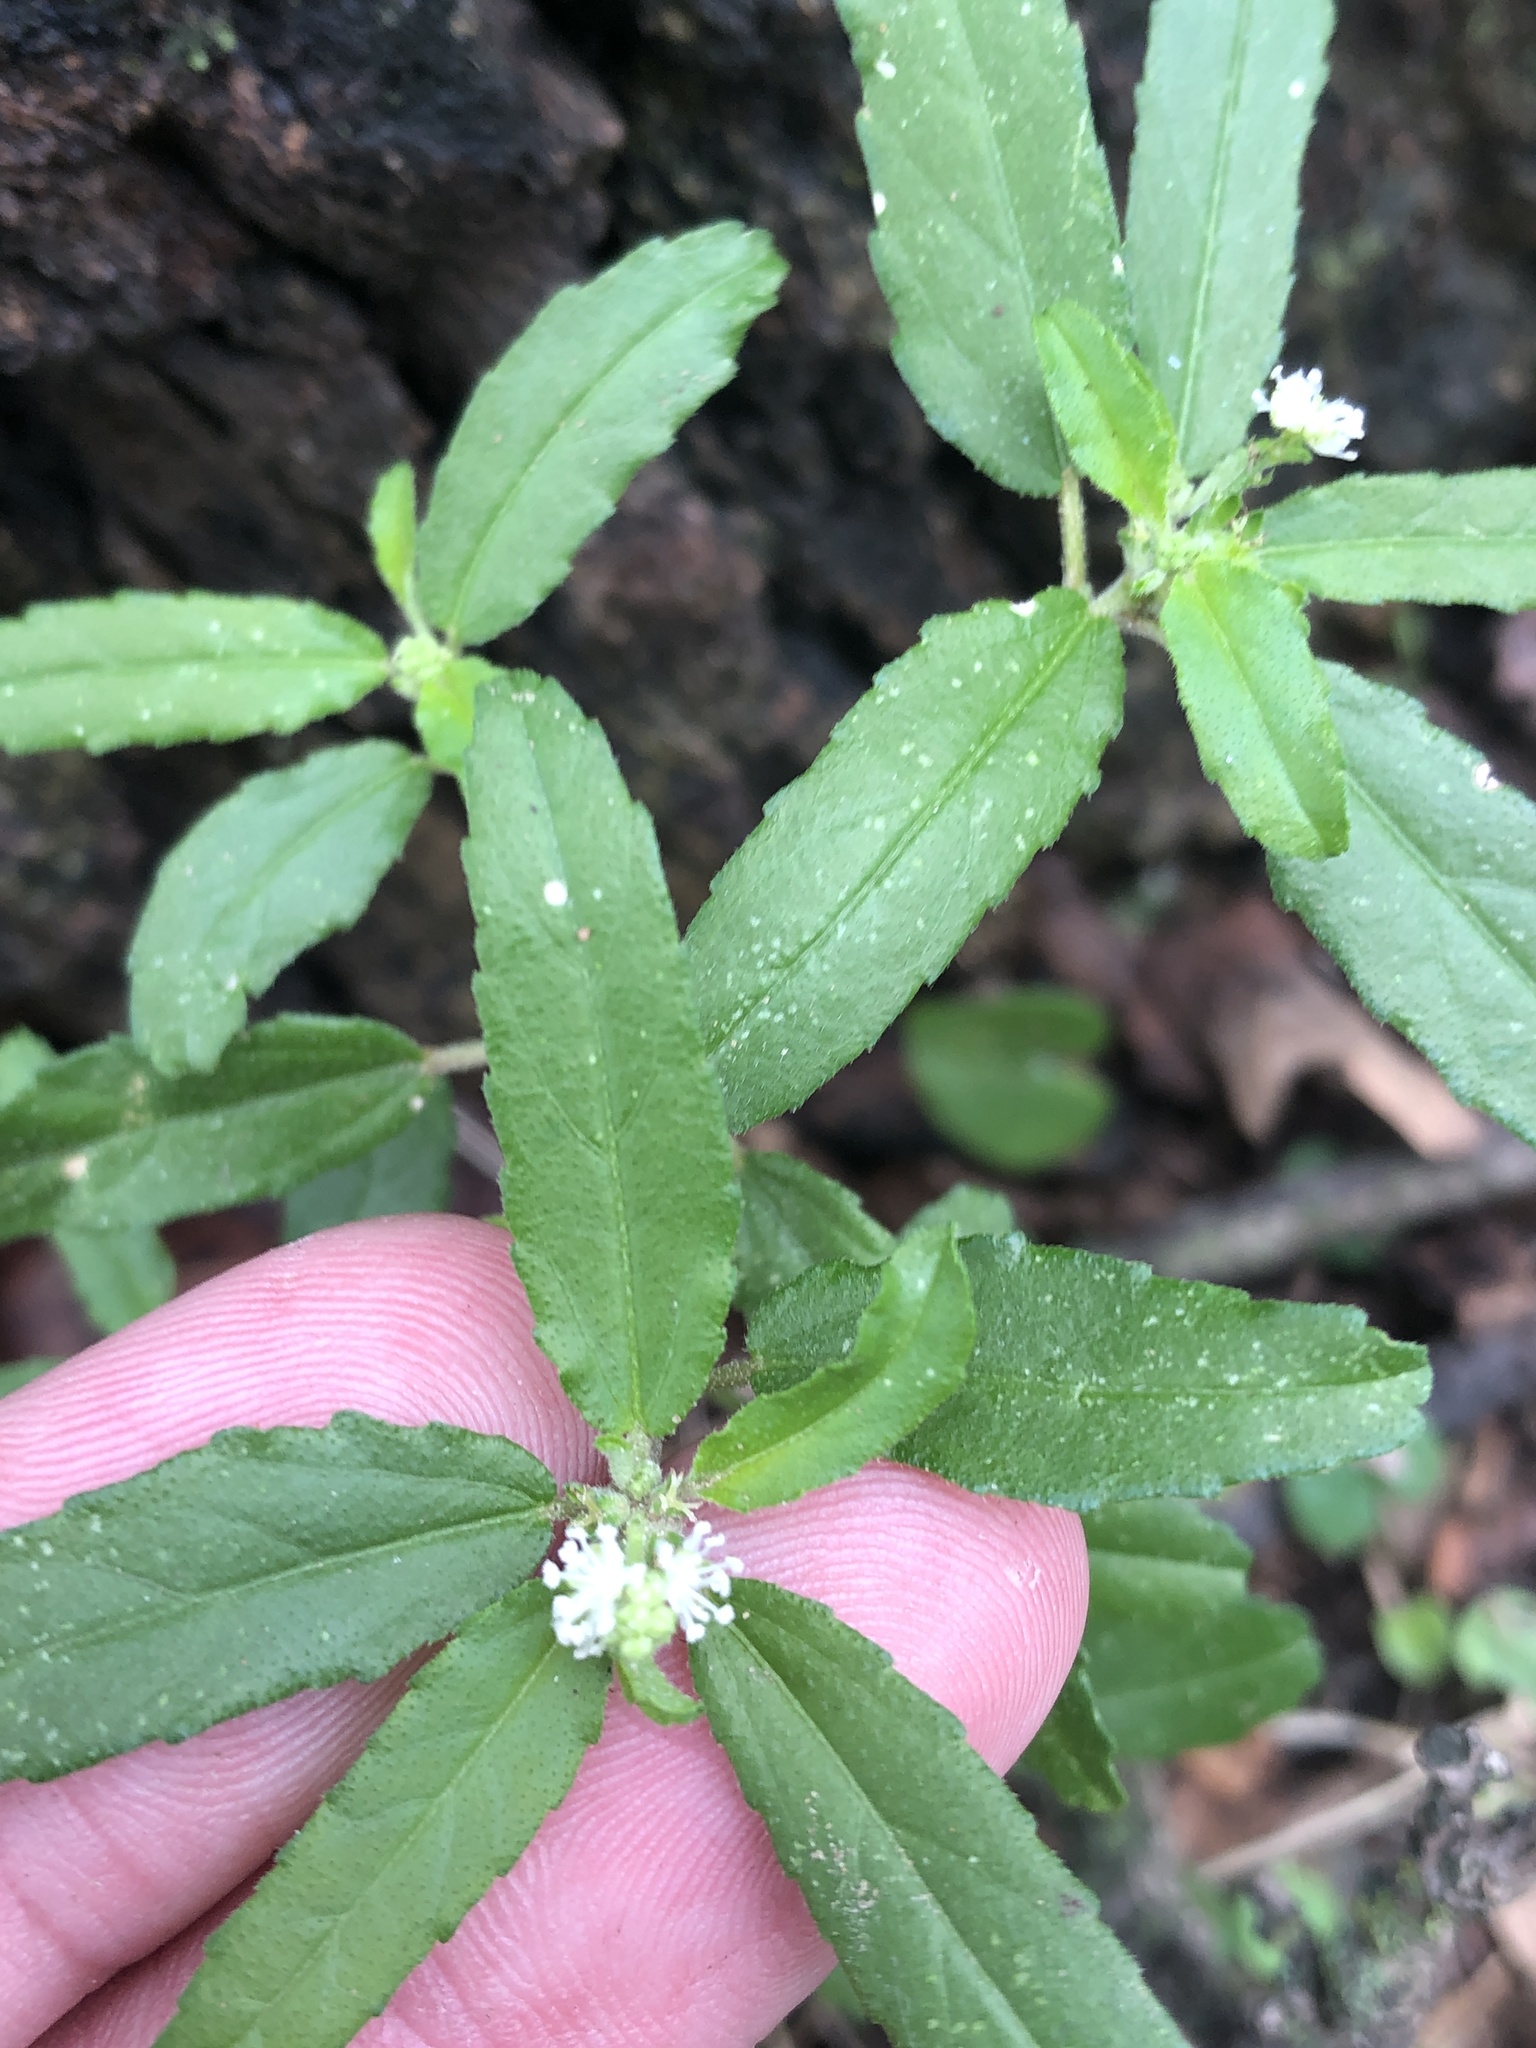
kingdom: Plantae
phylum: Tracheophyta
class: Magnoliopsida
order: Malpighiales
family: Euphorbiaceae
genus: Croton
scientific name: Croton glandulosus
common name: Tropic croton
